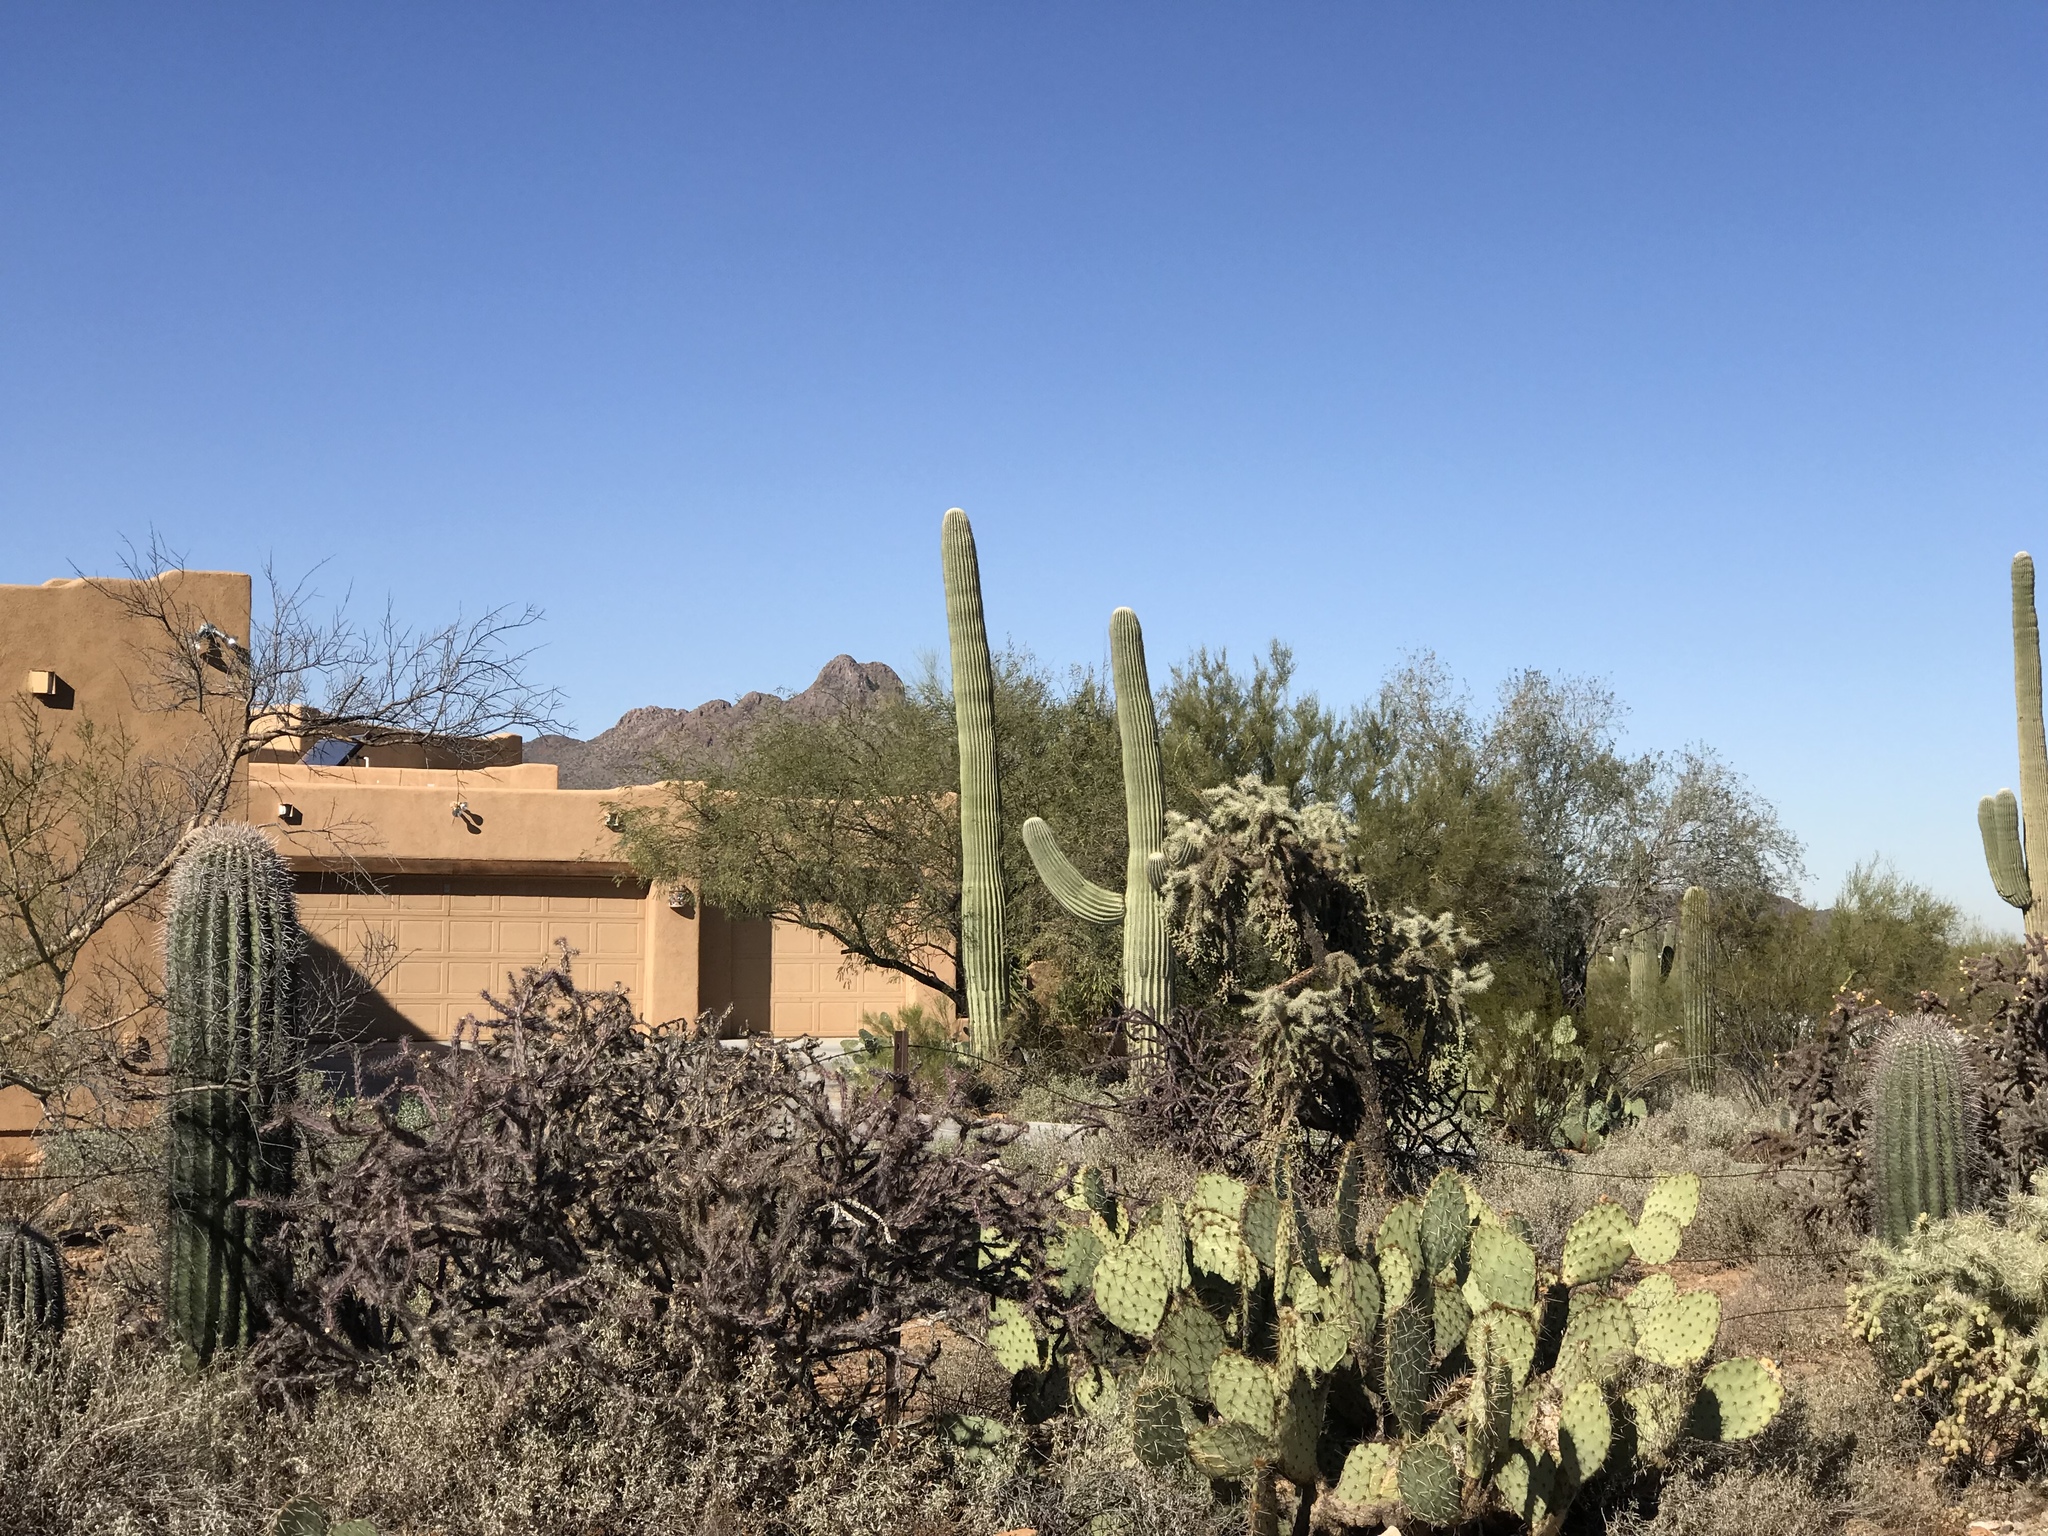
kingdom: Plantae
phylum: Tracheophyta
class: Magnoliopsida
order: Caryophyllales
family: Cactaceae
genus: Carnegiea
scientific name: Carnegiea gigantea
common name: Saguaro
